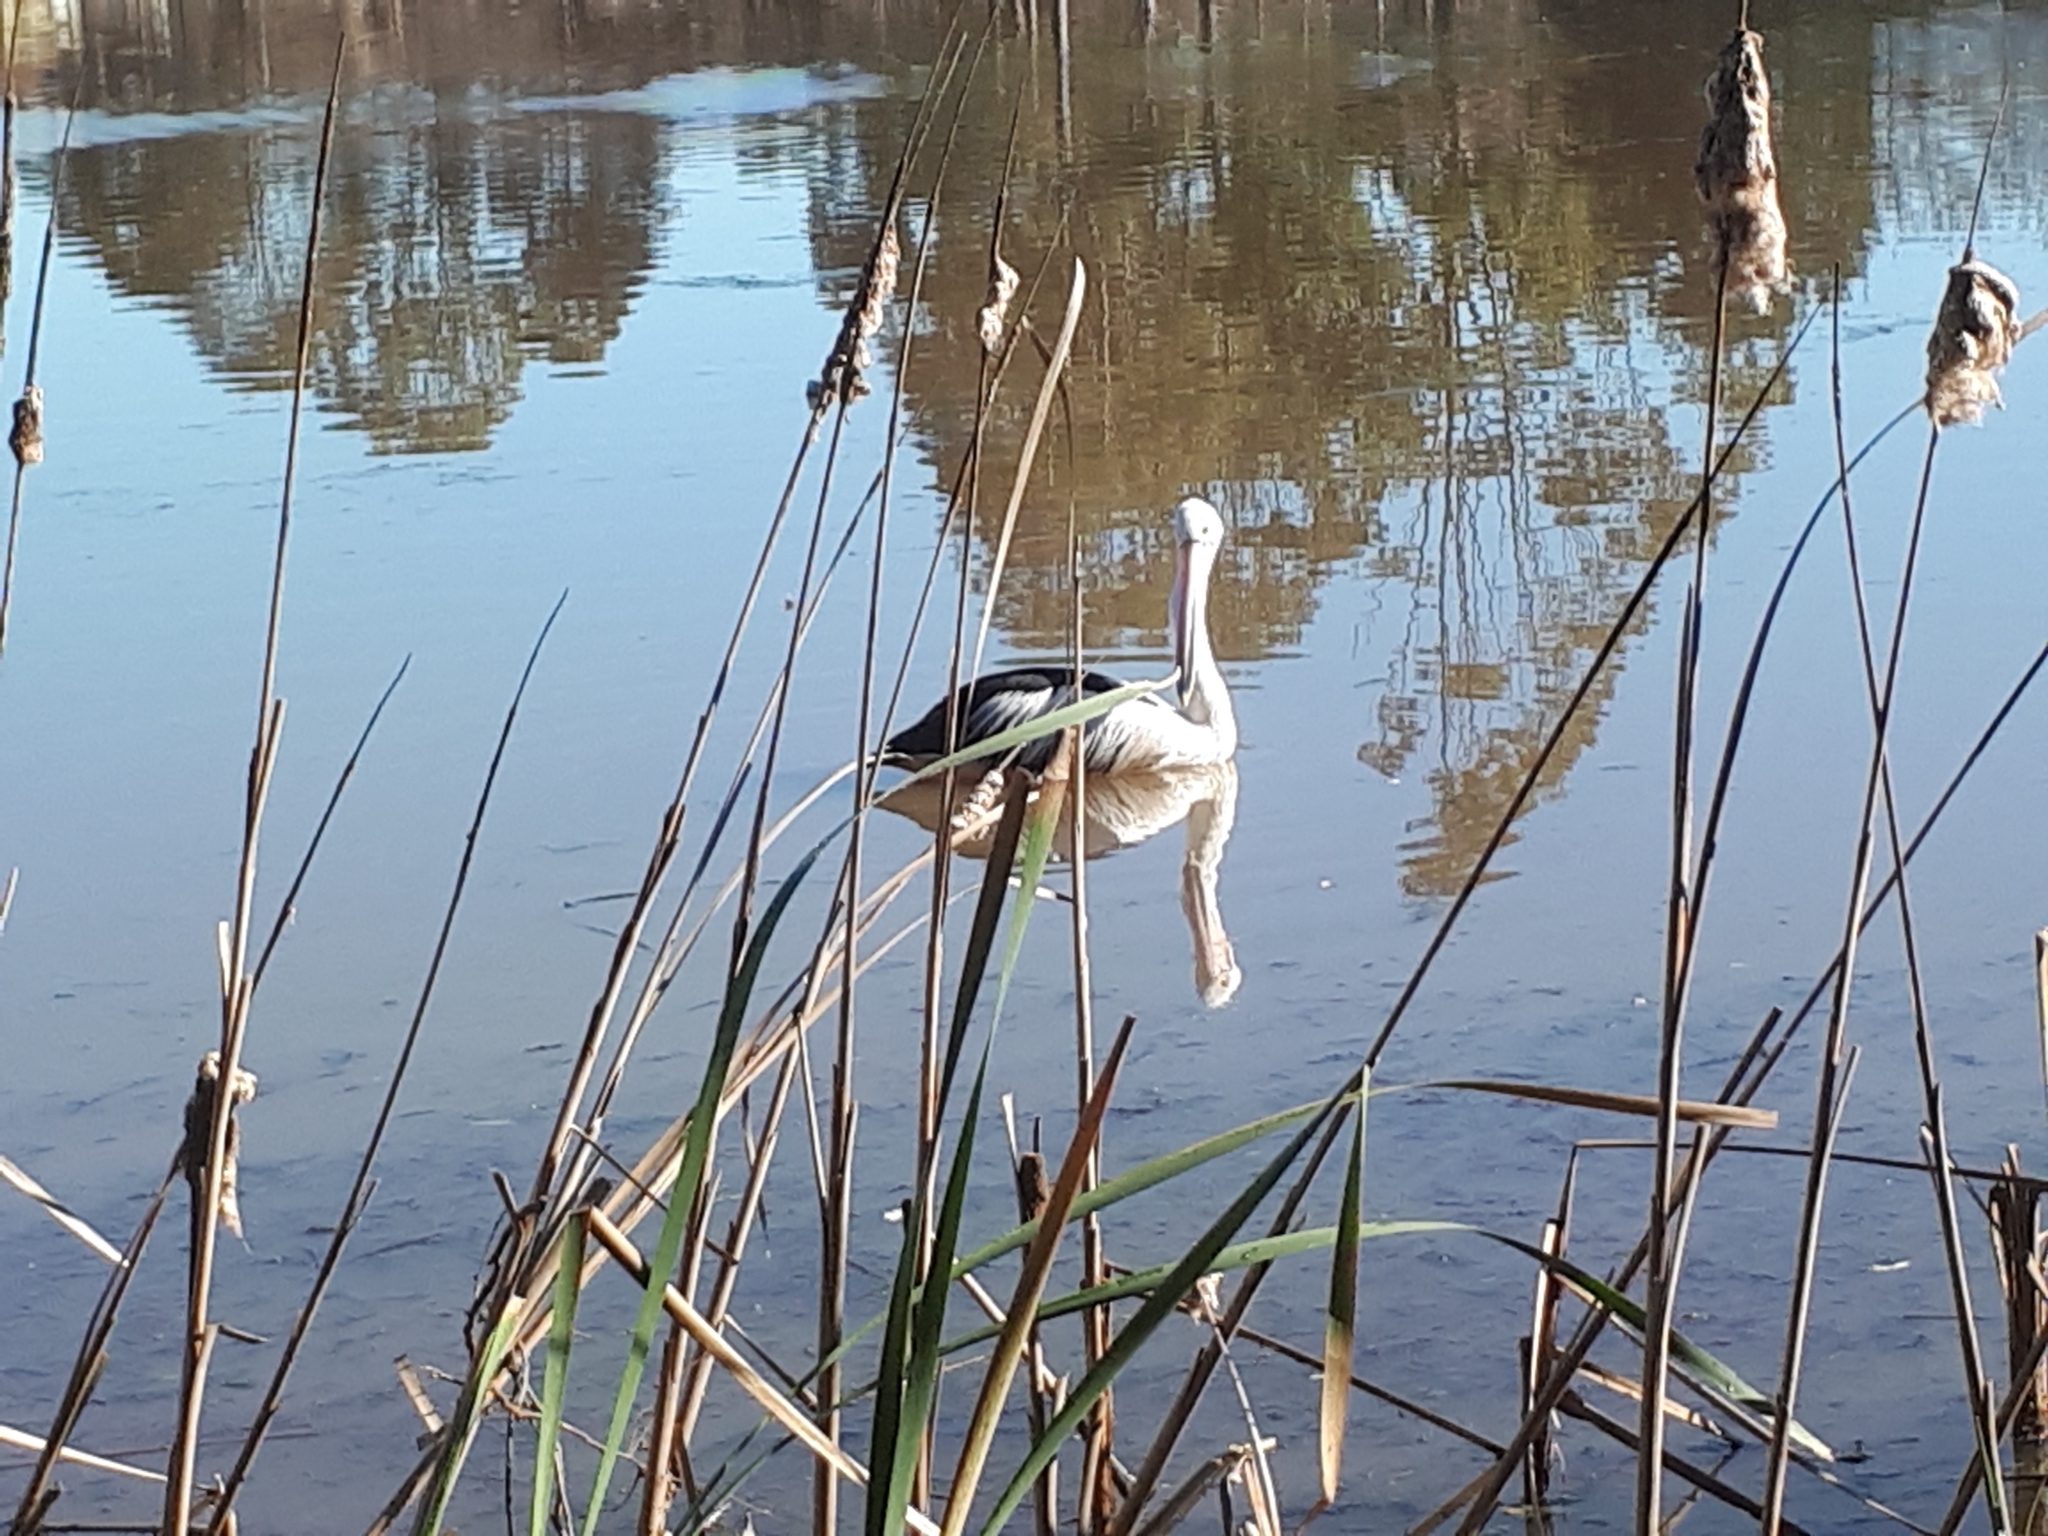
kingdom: Animalia
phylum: Chordata
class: Aves
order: Pelecaniformes
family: Pelecanidae
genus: Pelecanus
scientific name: Pelecanus conspicillatus
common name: Australian pelican
